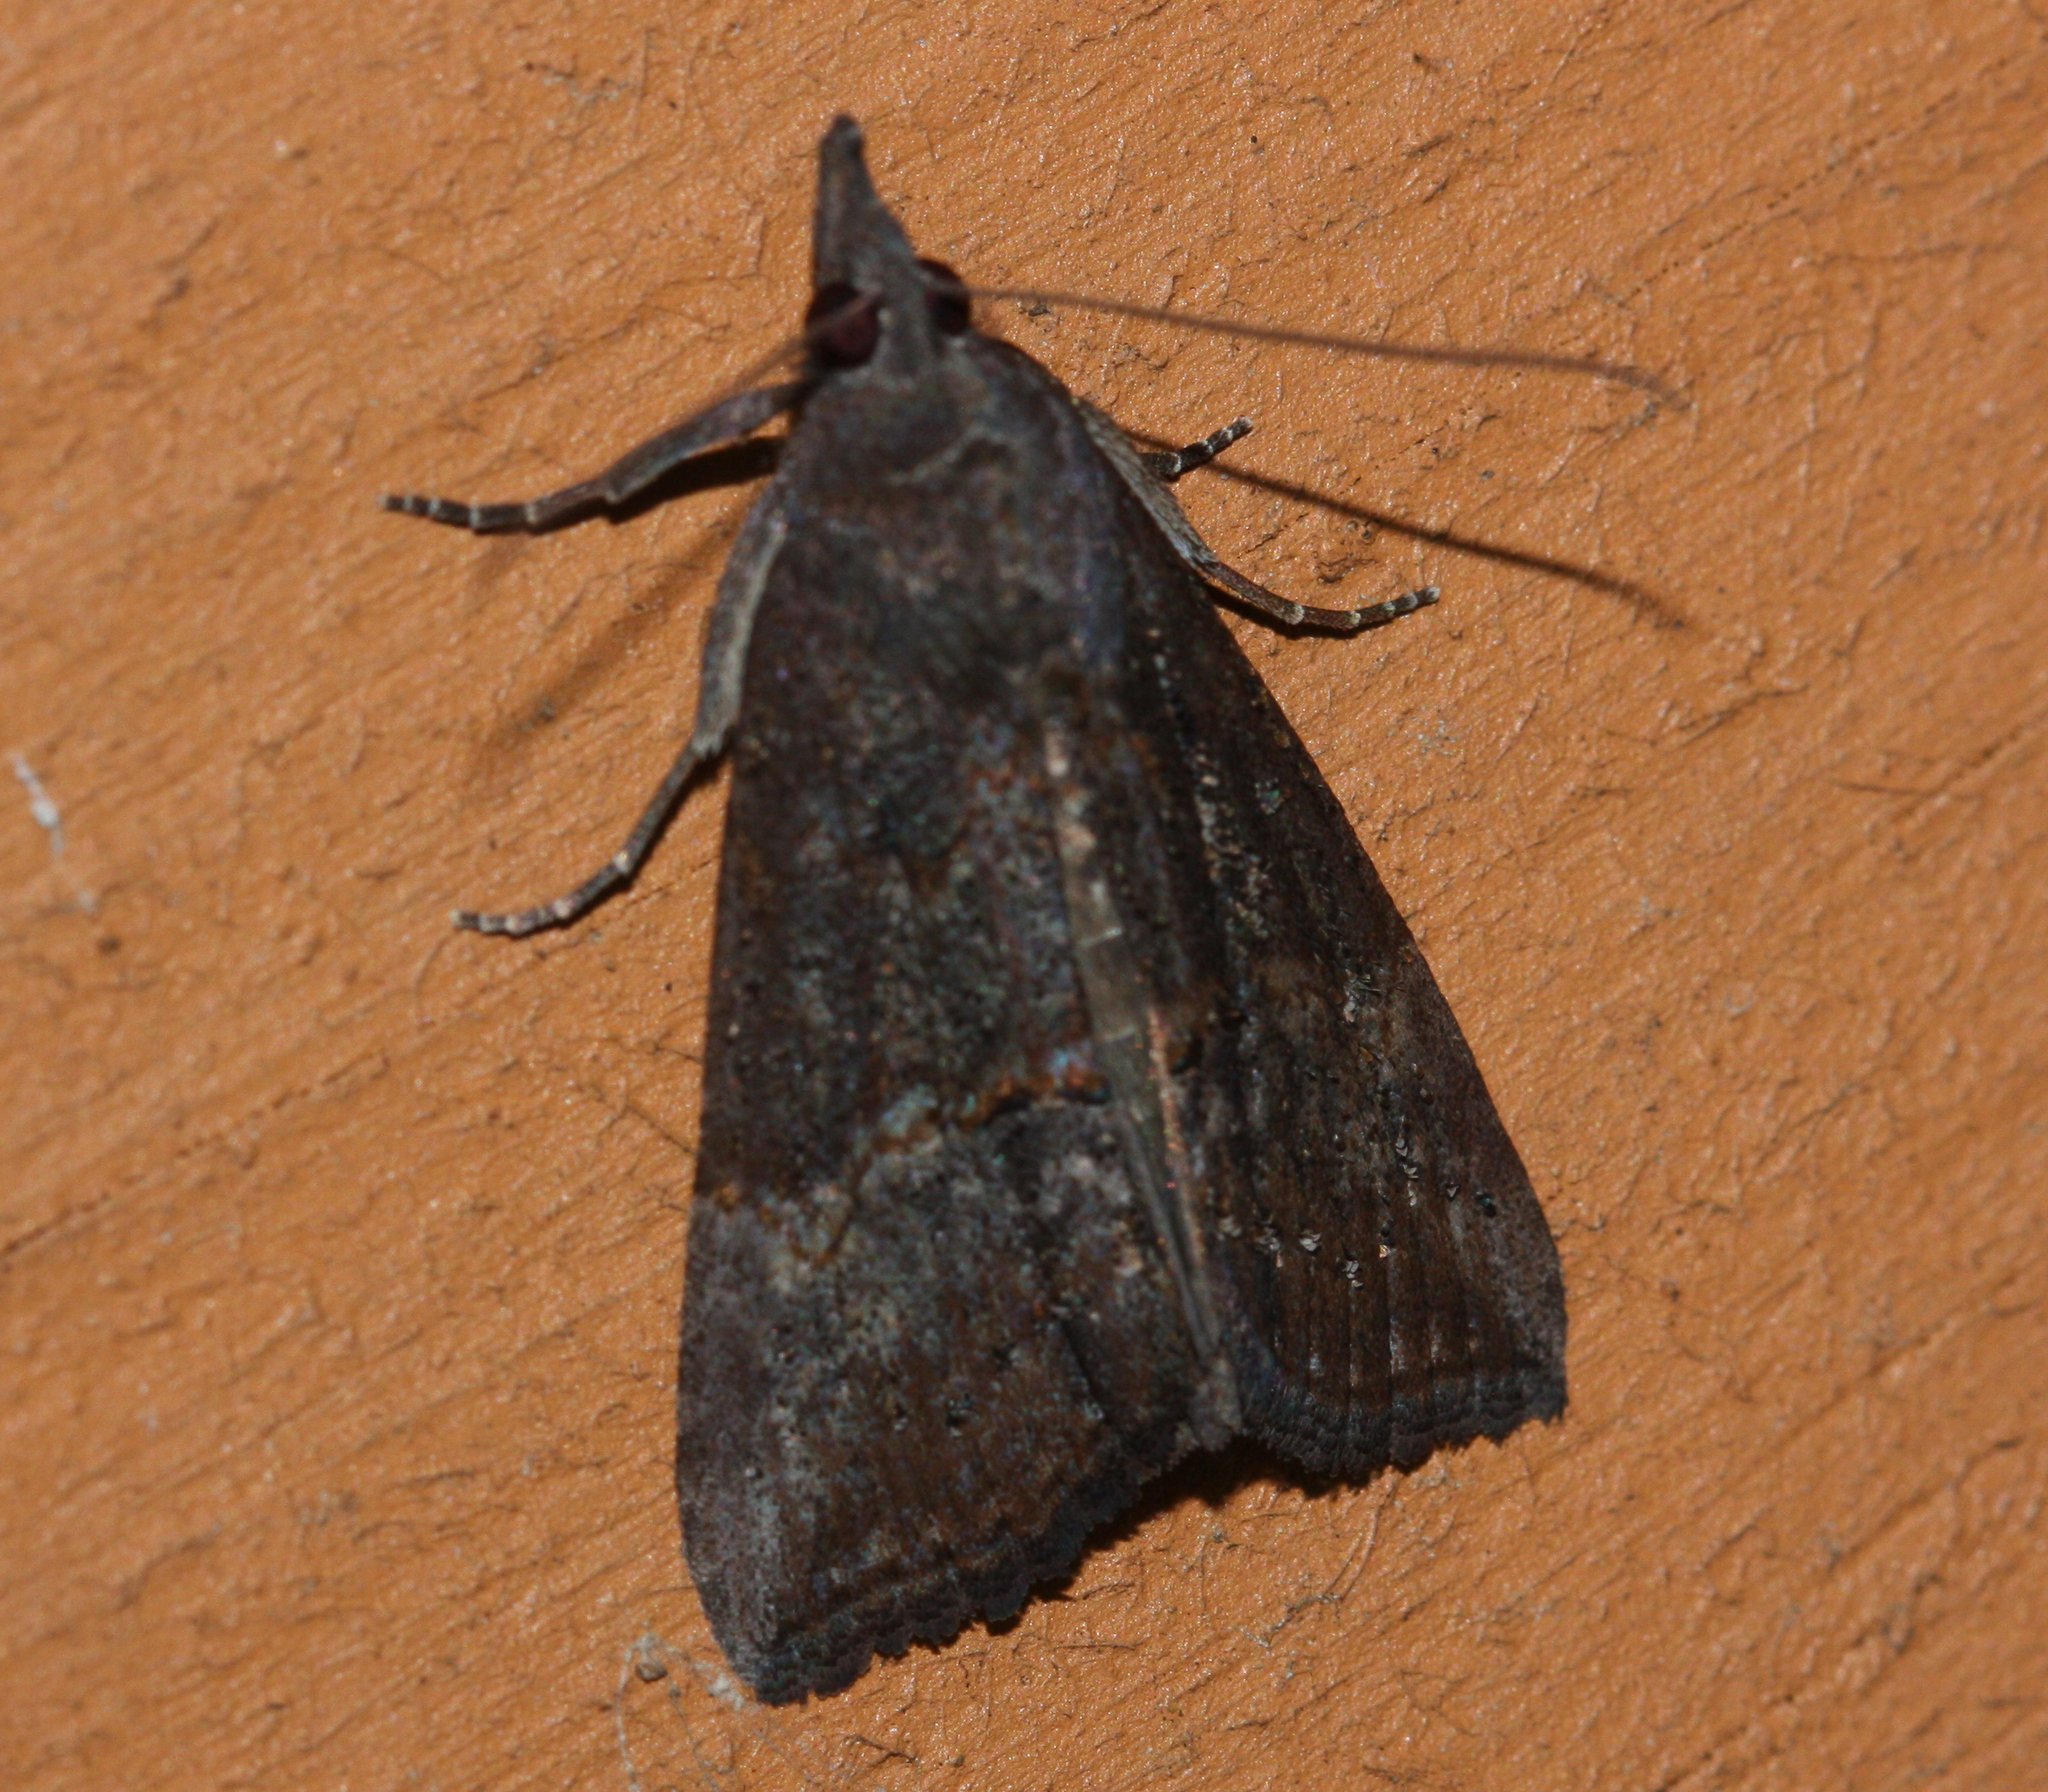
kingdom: Animalia
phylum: Arthropoda
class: Insecta
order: Lepidoptera
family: Erebidae
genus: Hypena
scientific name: Hypena scabra
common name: Green cloverworm
